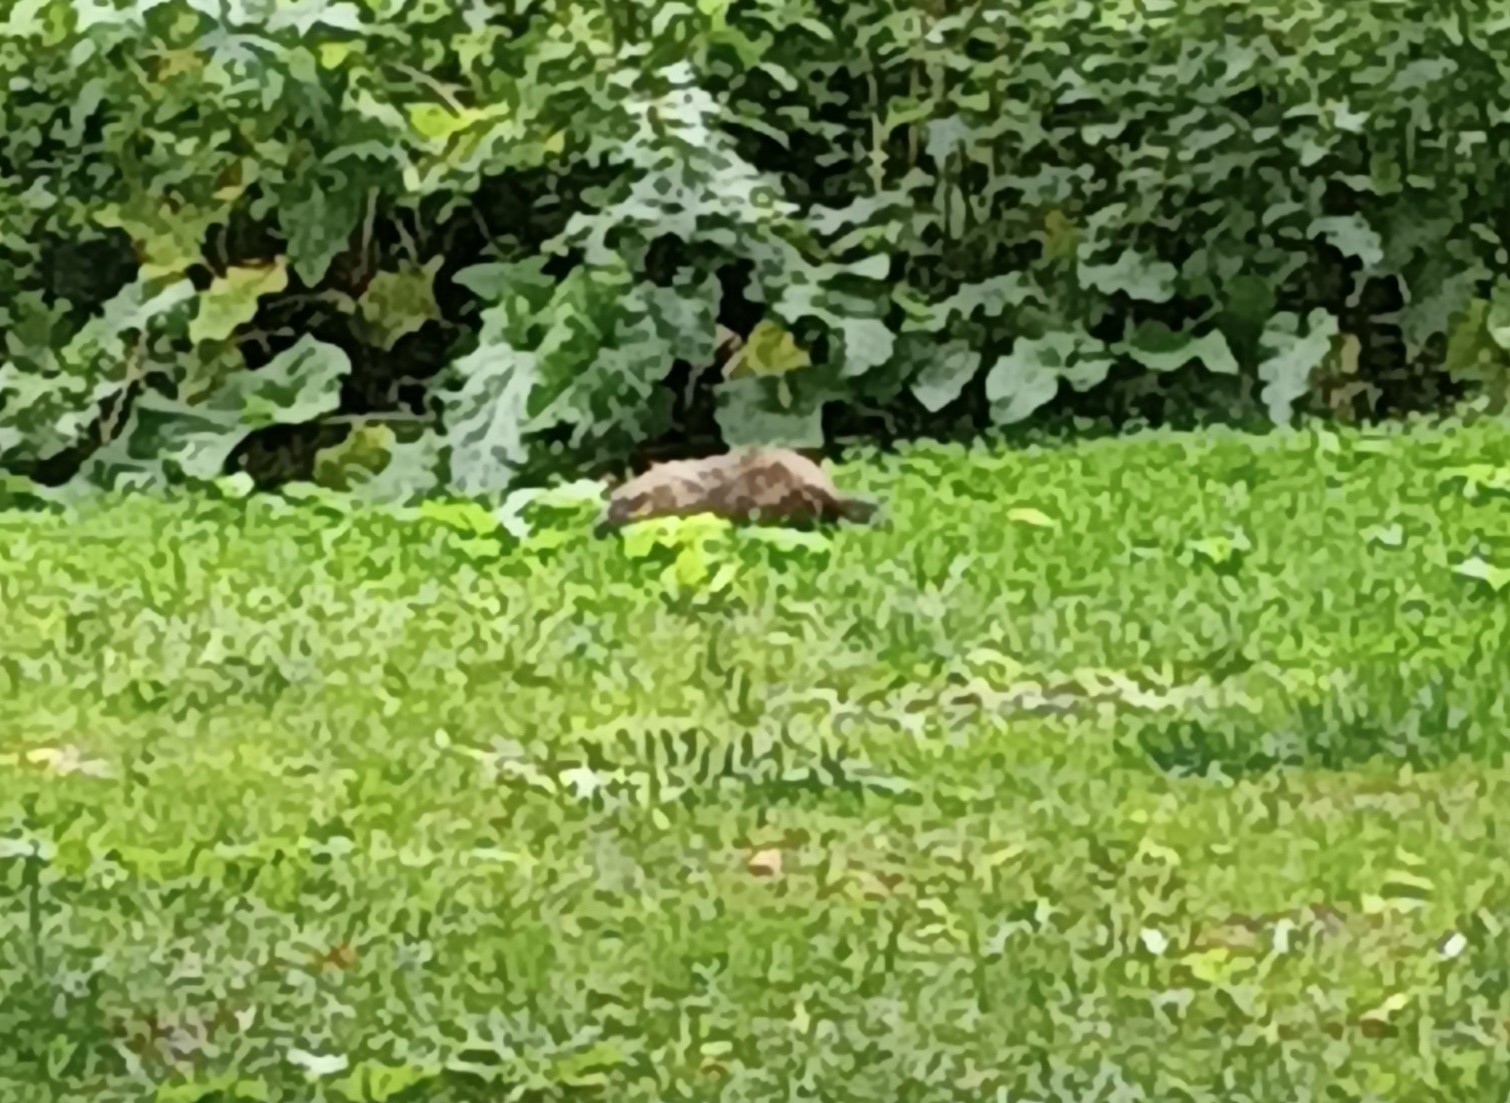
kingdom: Animalia
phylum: Chordata
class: Mammalia
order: Rodentia
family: Sciuridae
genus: Marmota
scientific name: Marmota monax
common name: Groundhog
